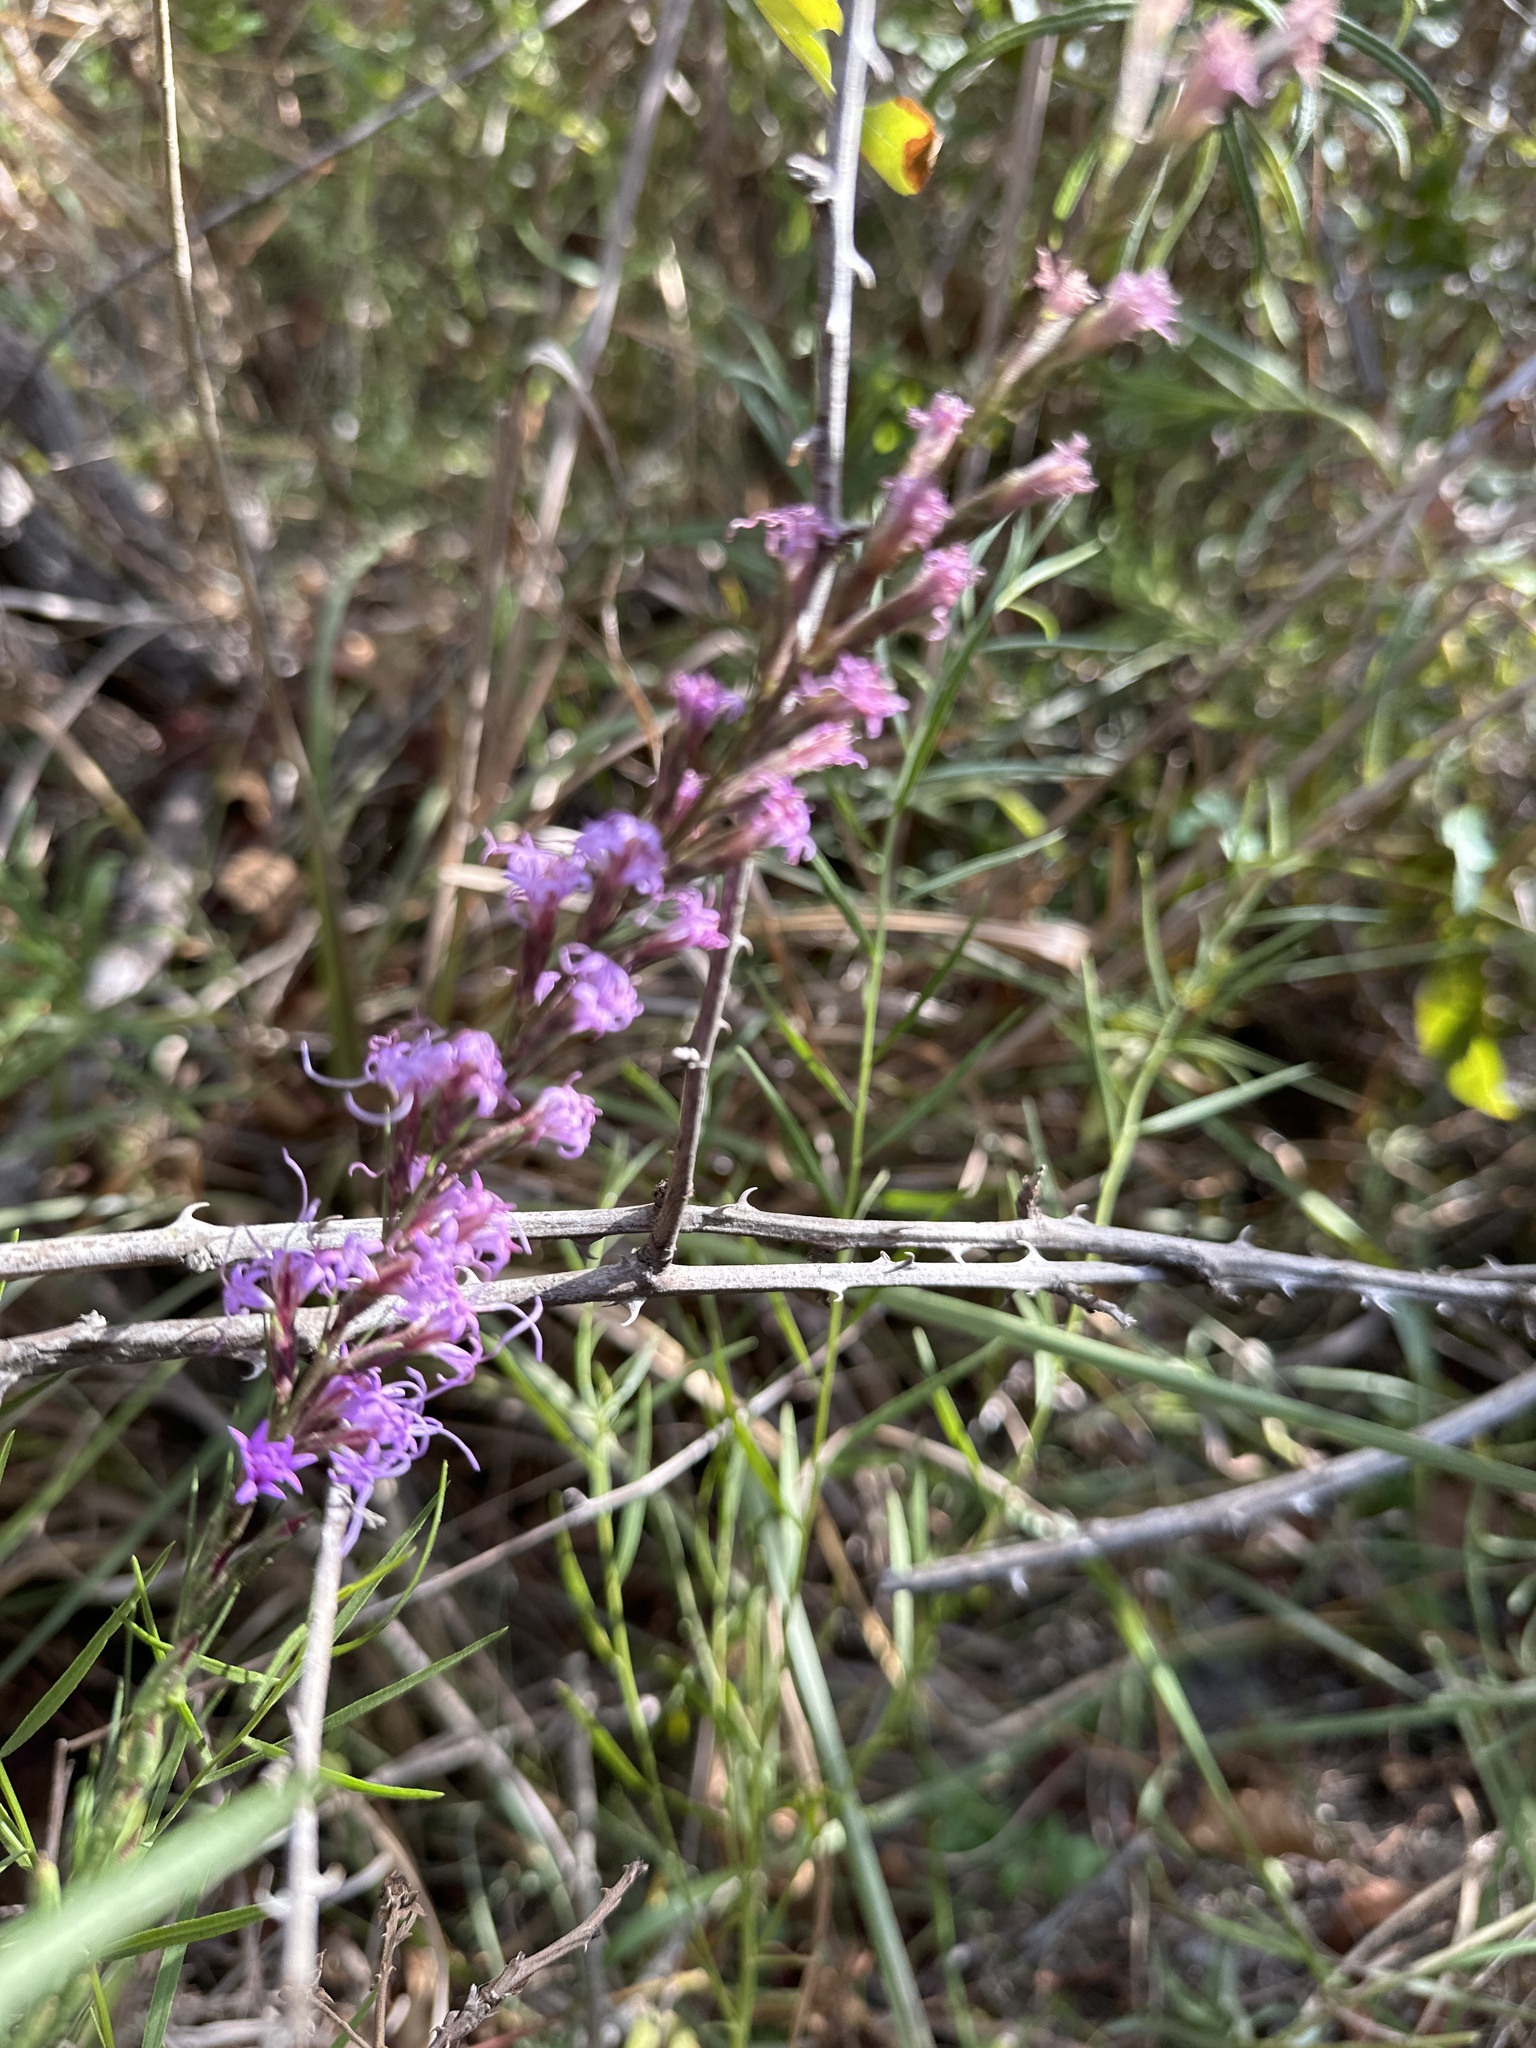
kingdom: Plantae
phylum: Tracheophyta
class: Magnoliopsida
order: Asterales
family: Asteraceae
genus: Liatris
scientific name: Liatris acidota
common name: Gulf coast gayfeather
